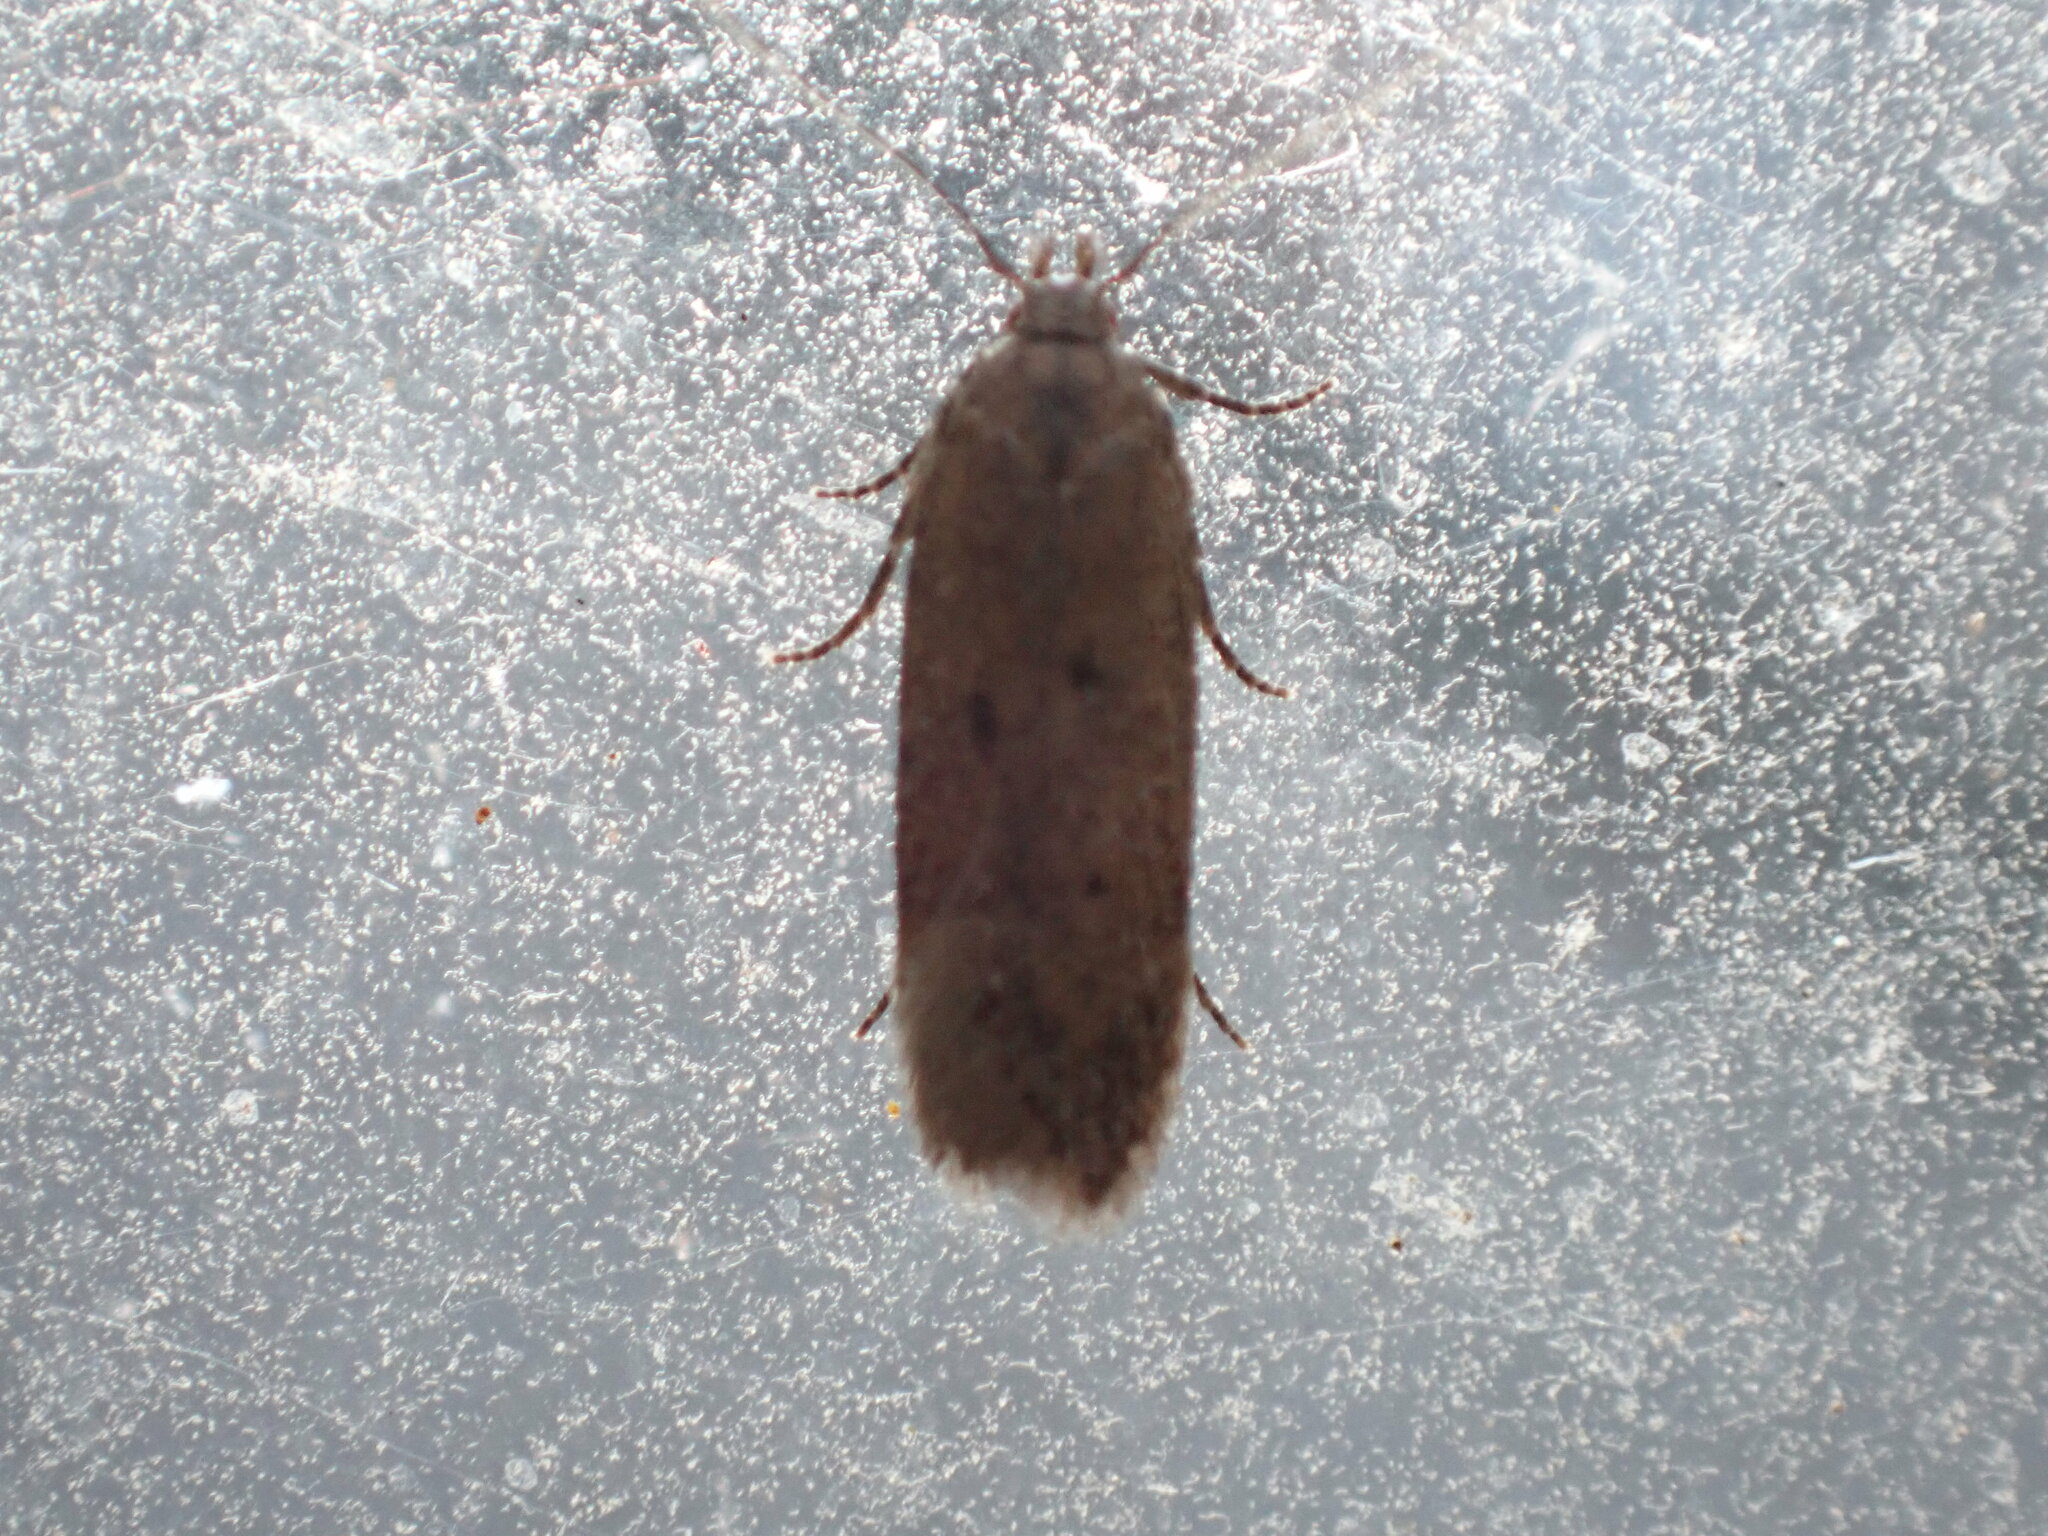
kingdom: Animalia
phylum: Arthropoda
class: Insecta
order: Lepidoptera
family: Gelechiidae
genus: Bryotropha
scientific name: Bryotropha terrella
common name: Cinerous groundling
